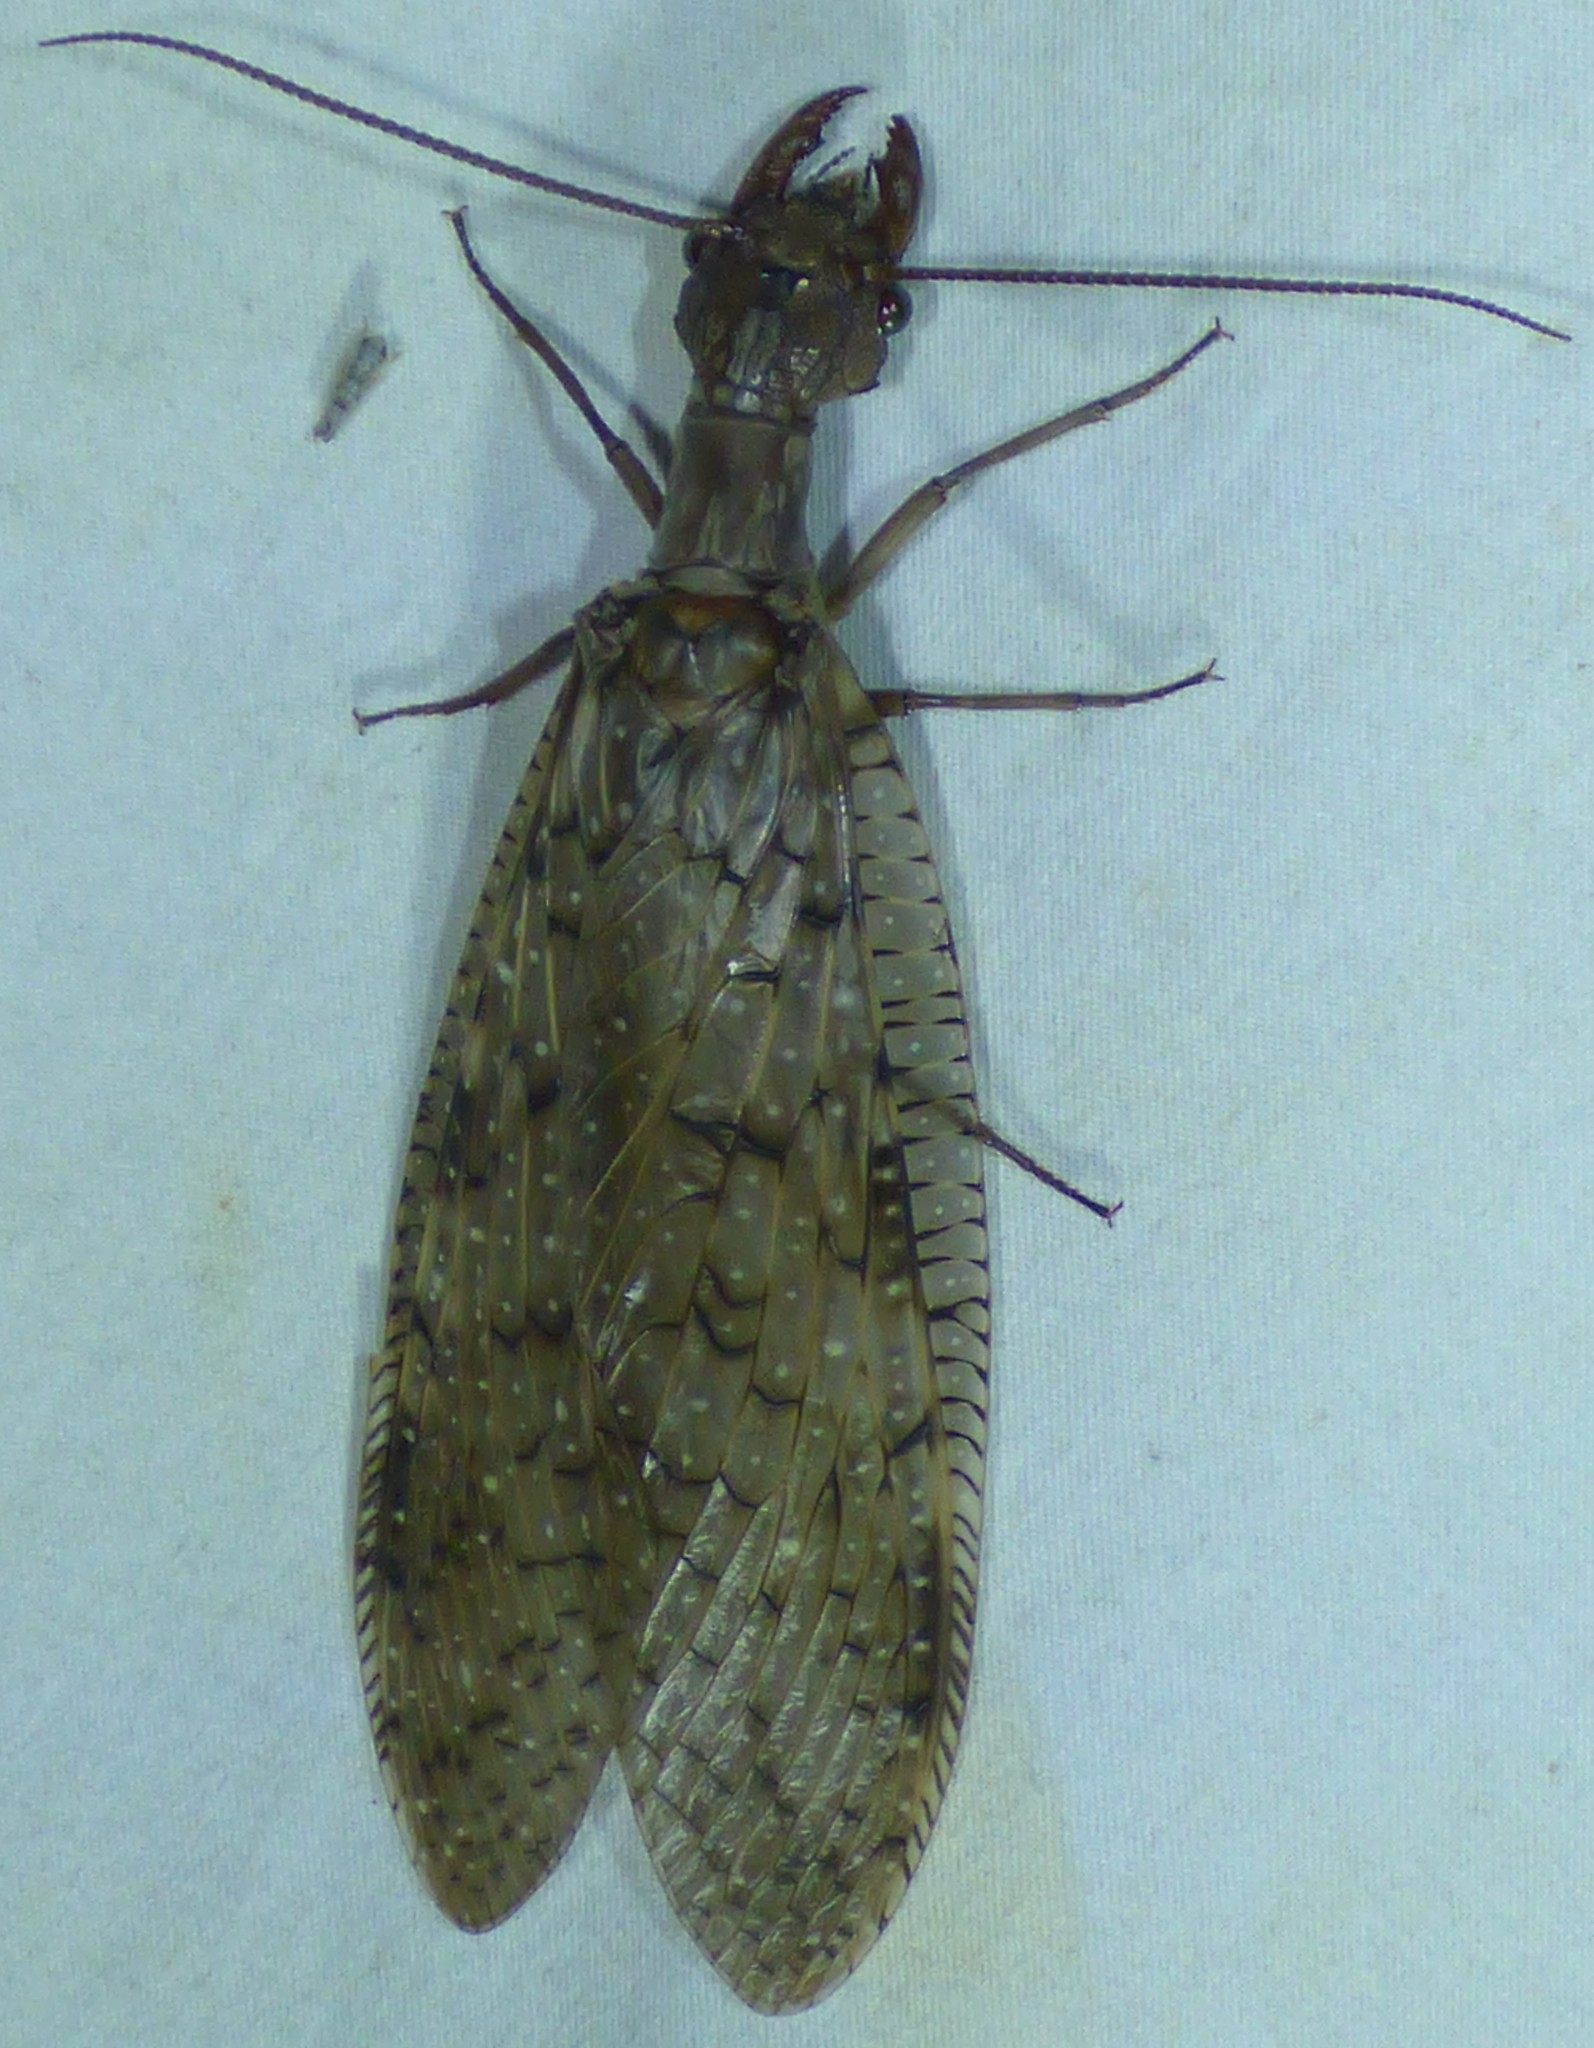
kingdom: Animalia
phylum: Arthropoda
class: Insecta
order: Megaloptera
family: Corydalidae
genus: Corydalus
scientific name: Corydalus cornutus
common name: Dobsonfly
